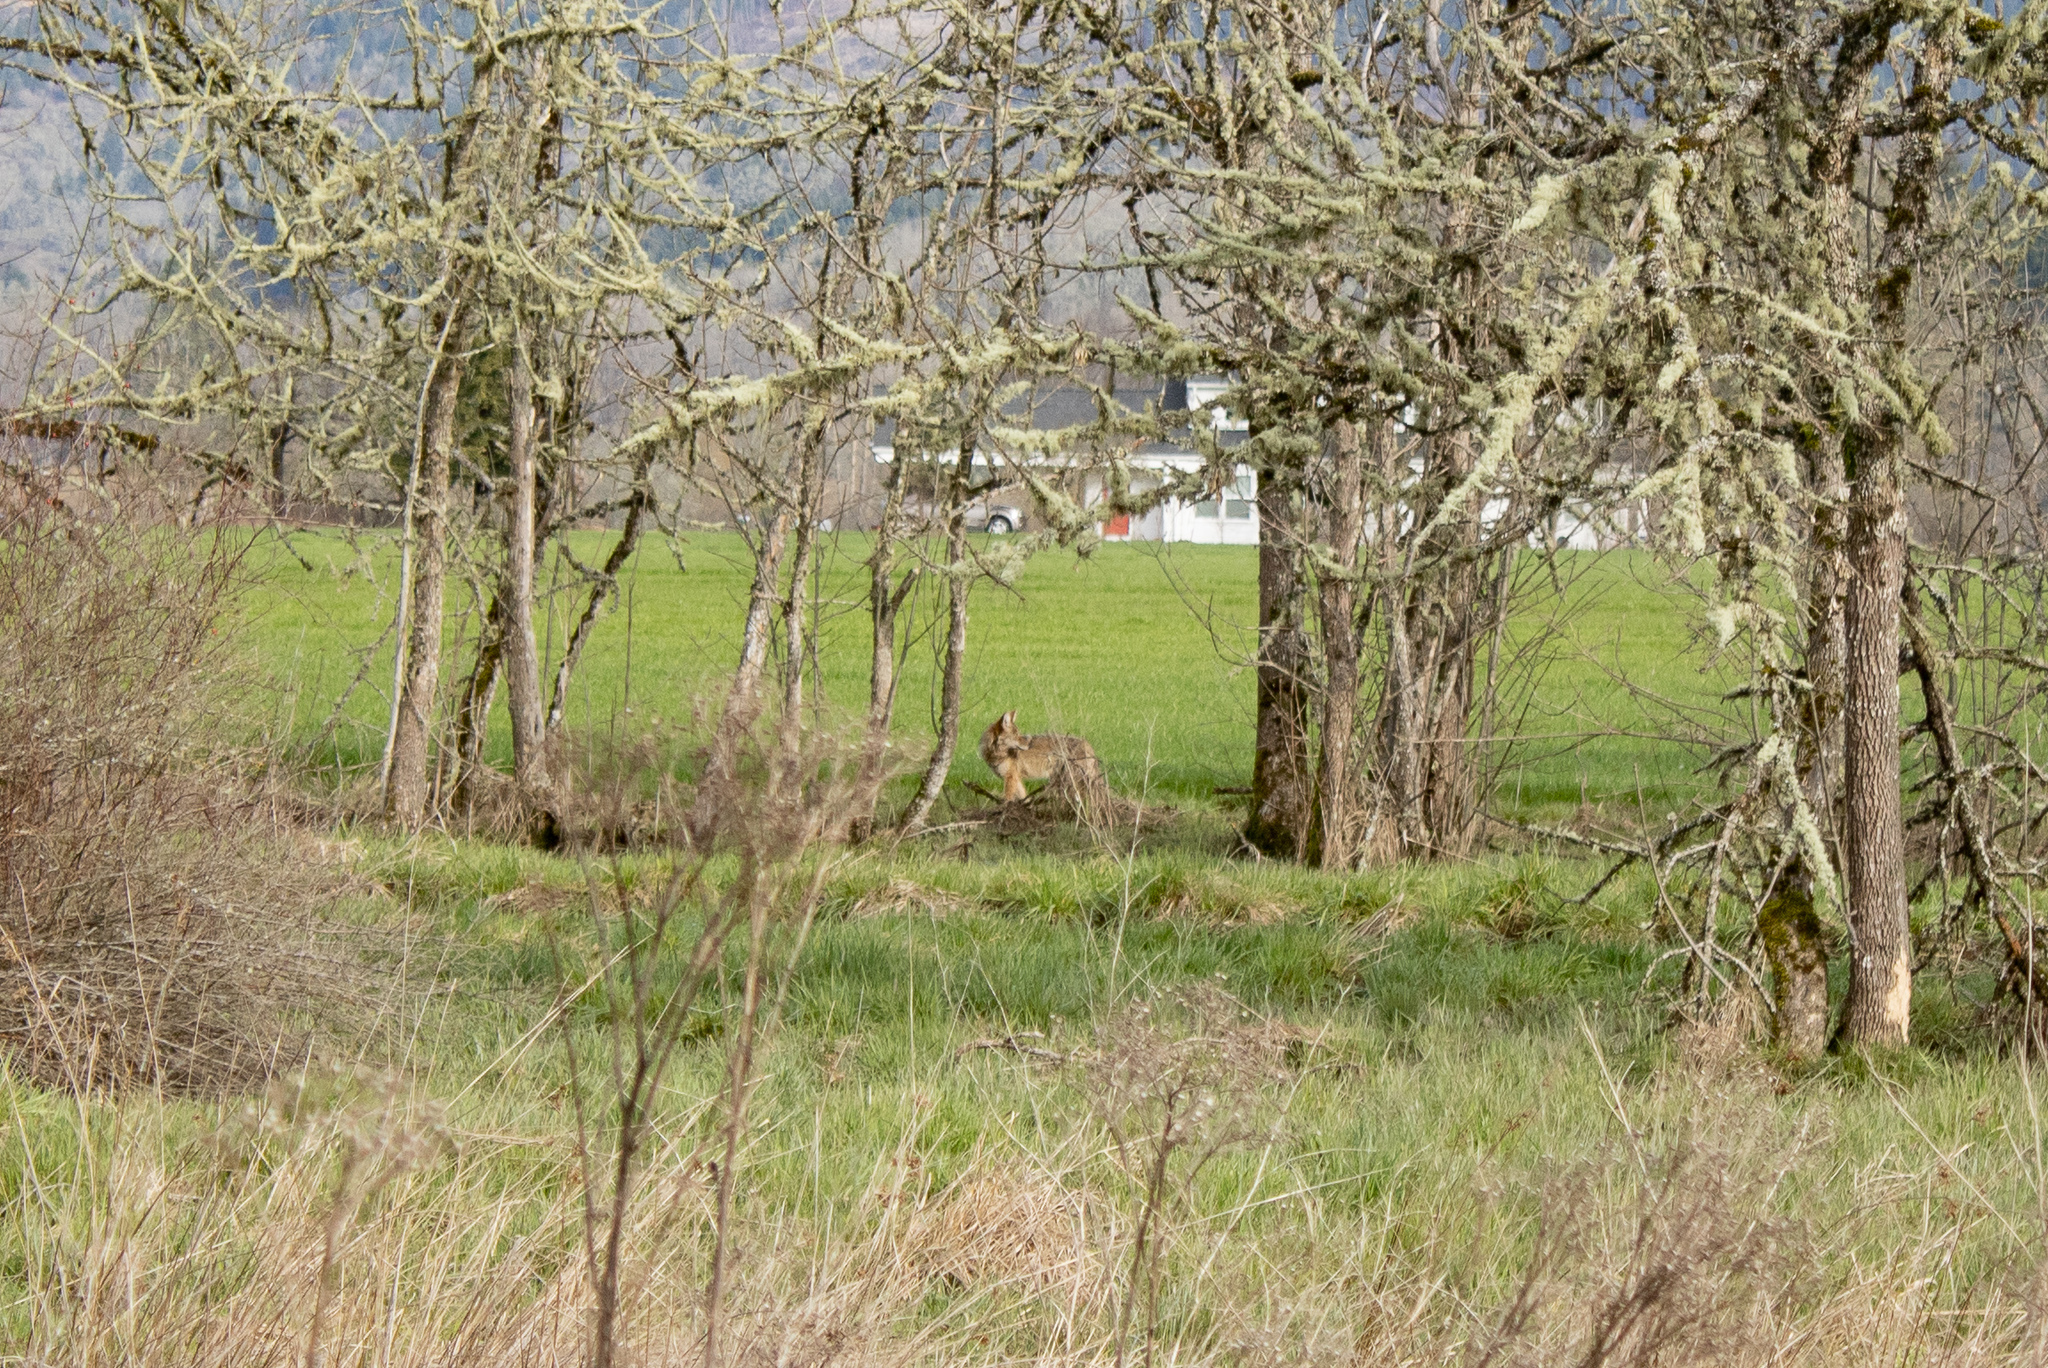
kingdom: Animalia
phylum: Chordata
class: Mammalia
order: Carnivora
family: Canidae
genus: Canis
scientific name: Canis latrans
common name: Coyote
